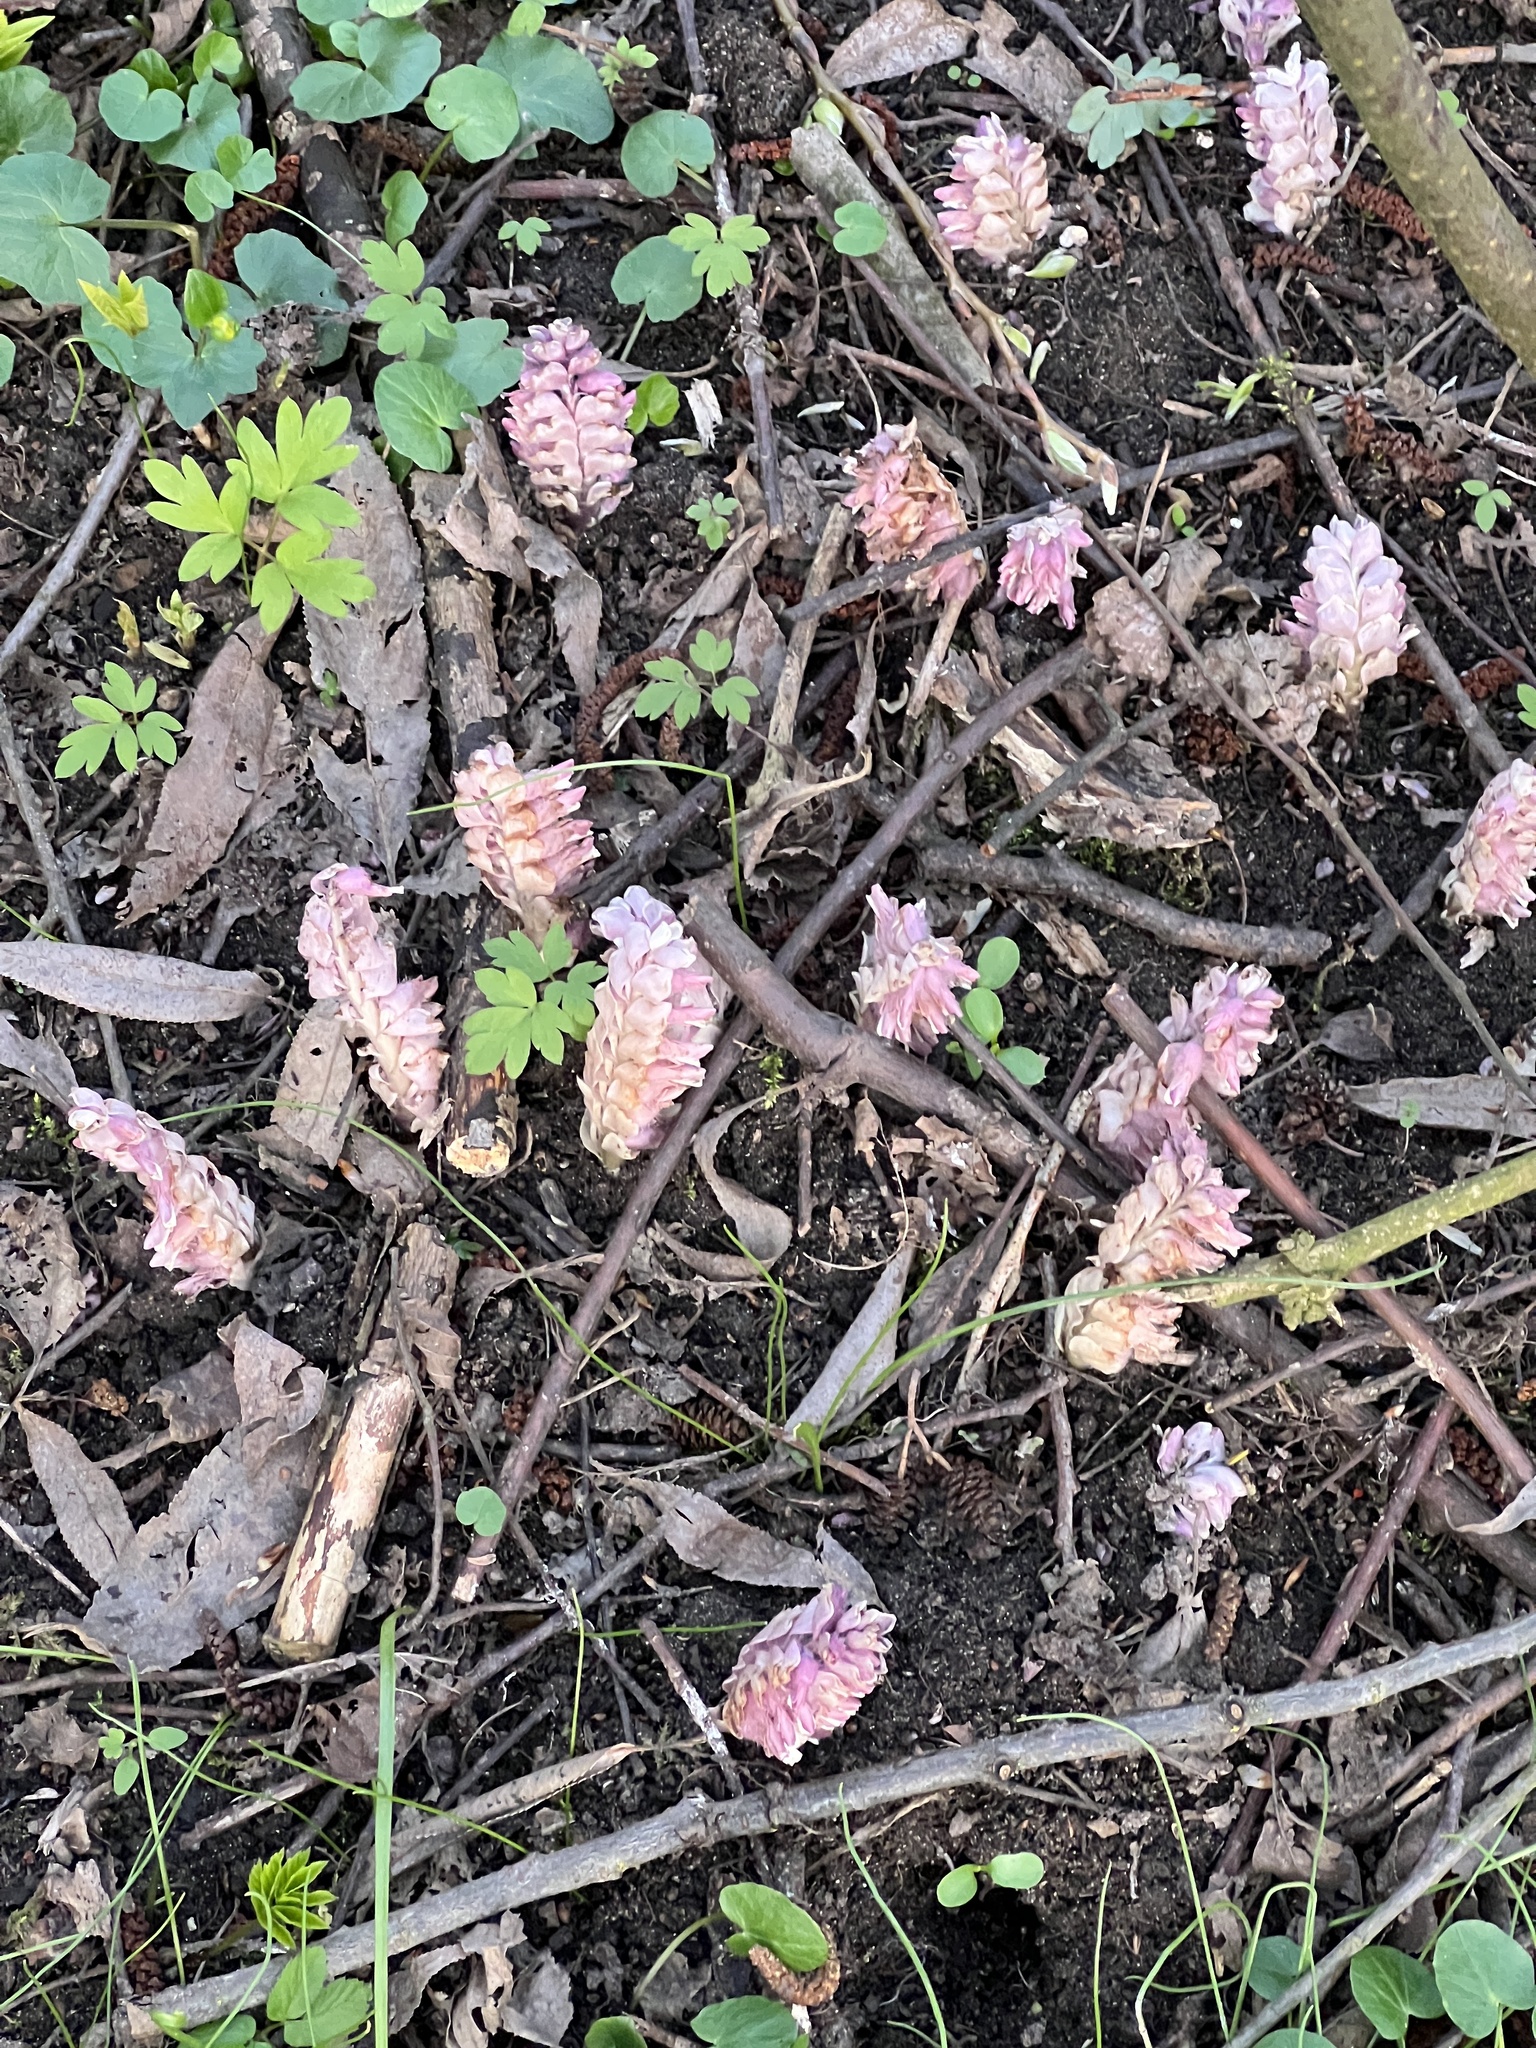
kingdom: Plantae
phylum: Tracheophyta
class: Magnoliopsida
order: Lamiales
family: Orobanchaceae
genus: Lathraea
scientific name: Lathraea squamaria
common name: Toothwort
